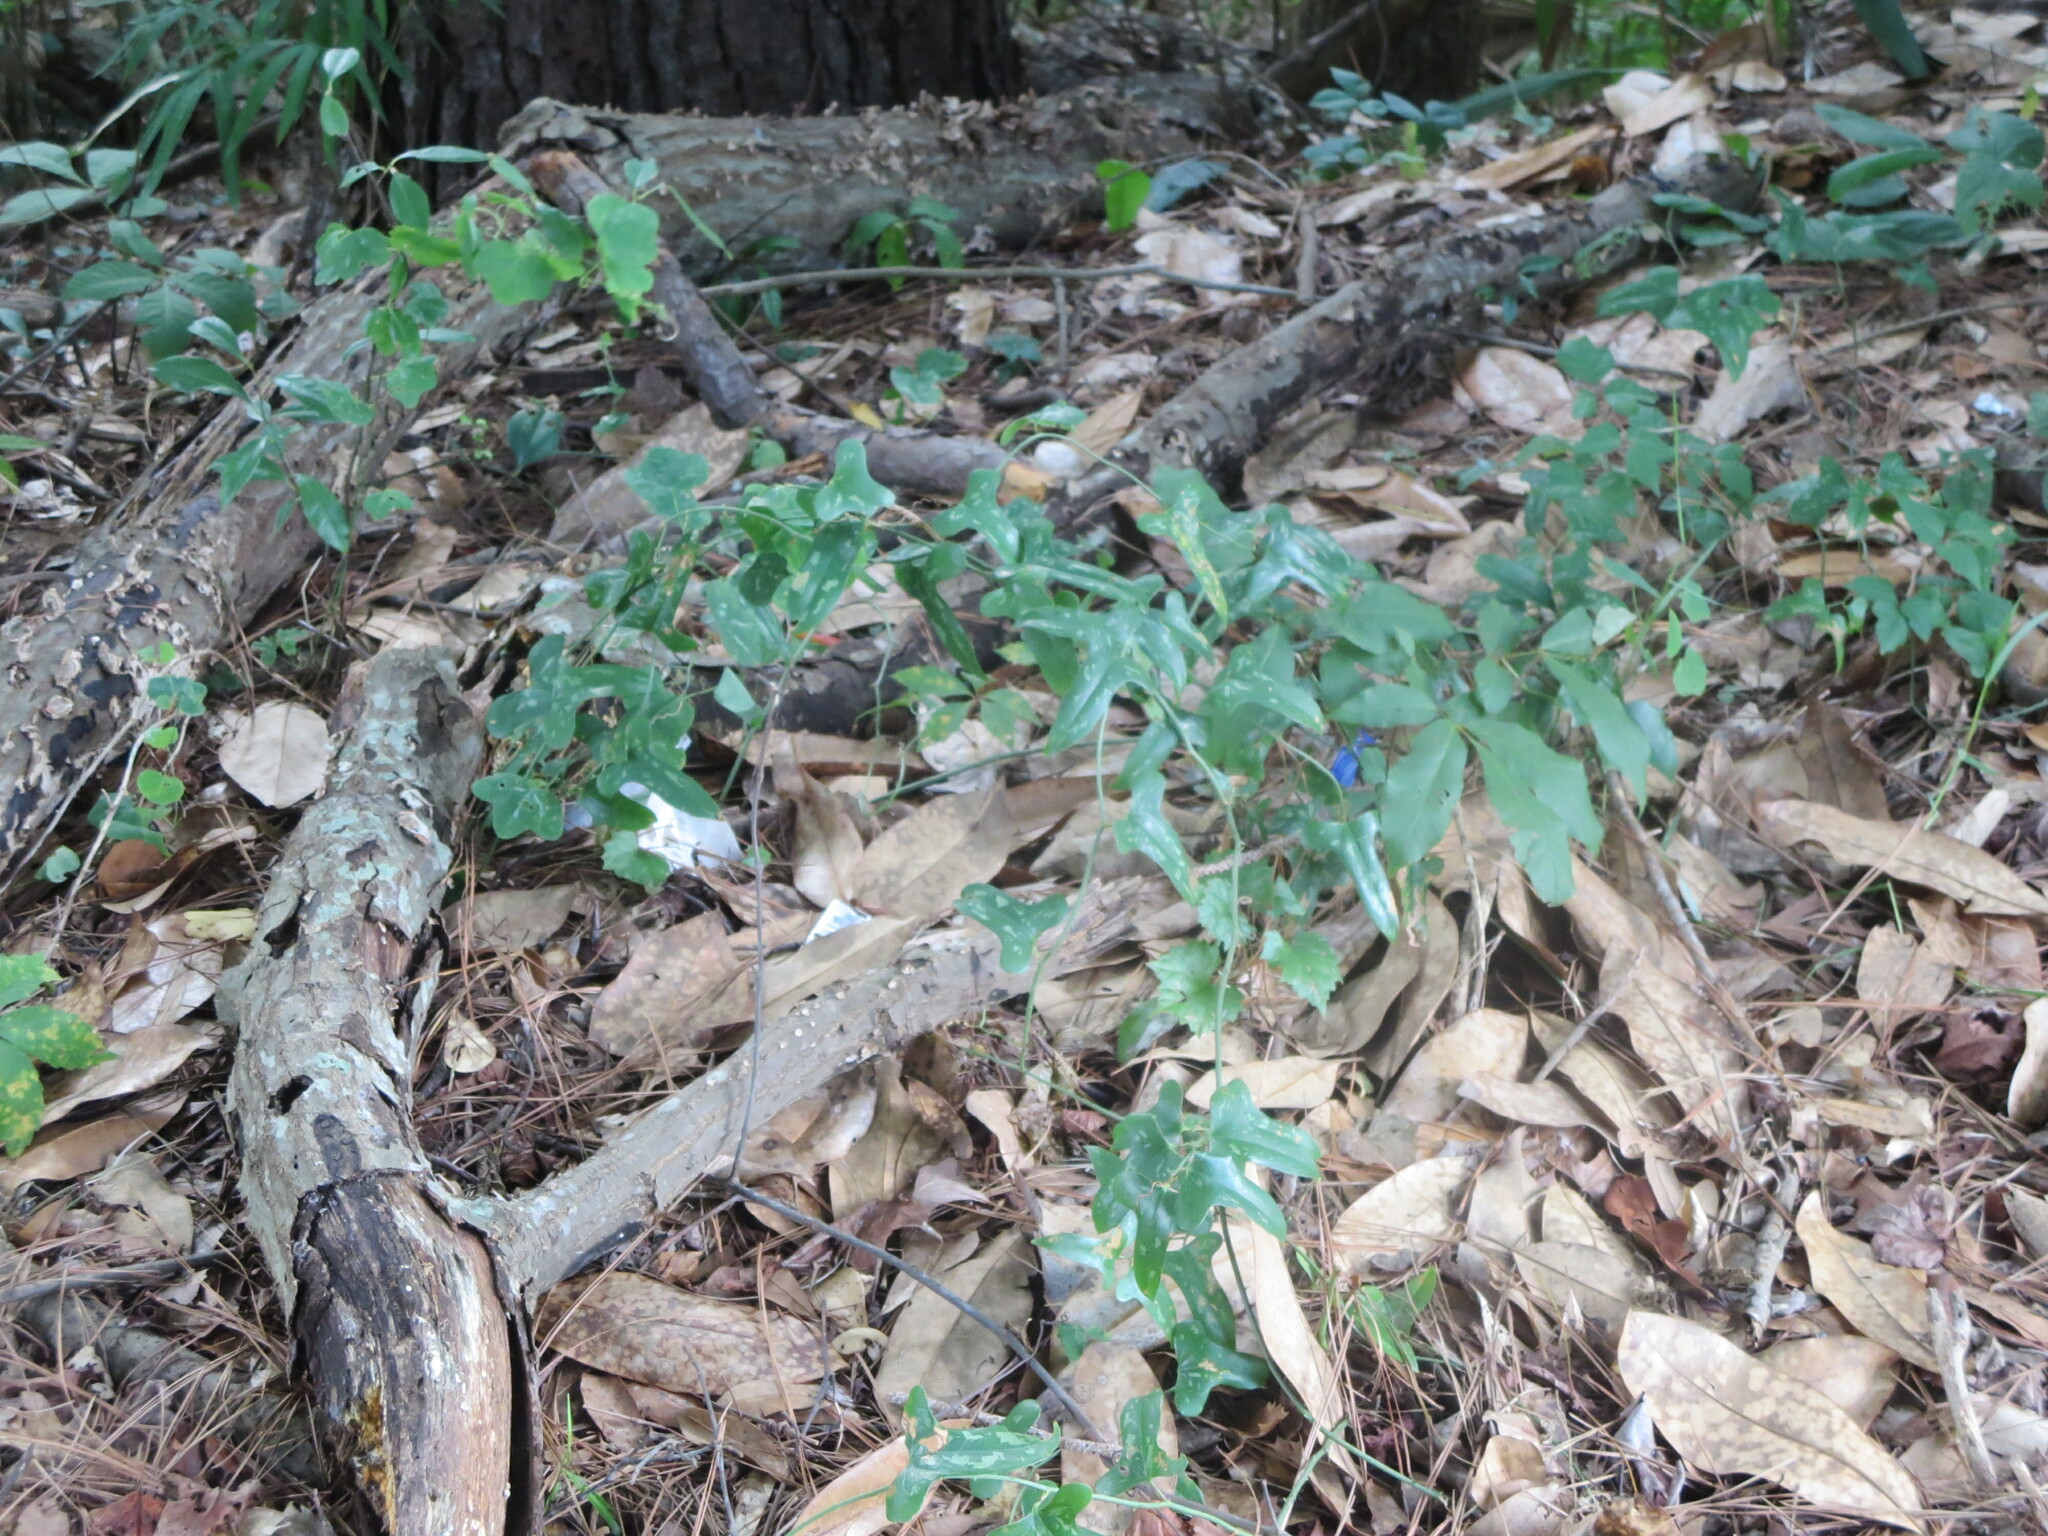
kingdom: Plantae
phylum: Tracheophyta
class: Magnoliopsida
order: Malpighiales
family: Passifloraceae
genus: Passiflora
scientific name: Passiflora lutea
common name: Yellow passionflower
